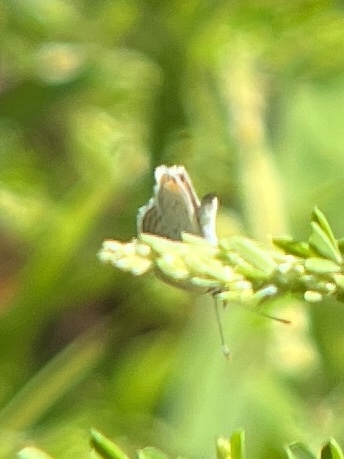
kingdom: Animalia
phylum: Arthropoda
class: Insecta
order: Lepidoptera
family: Lycaenidae
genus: Elkalyce
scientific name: Elkalyce comyntas
